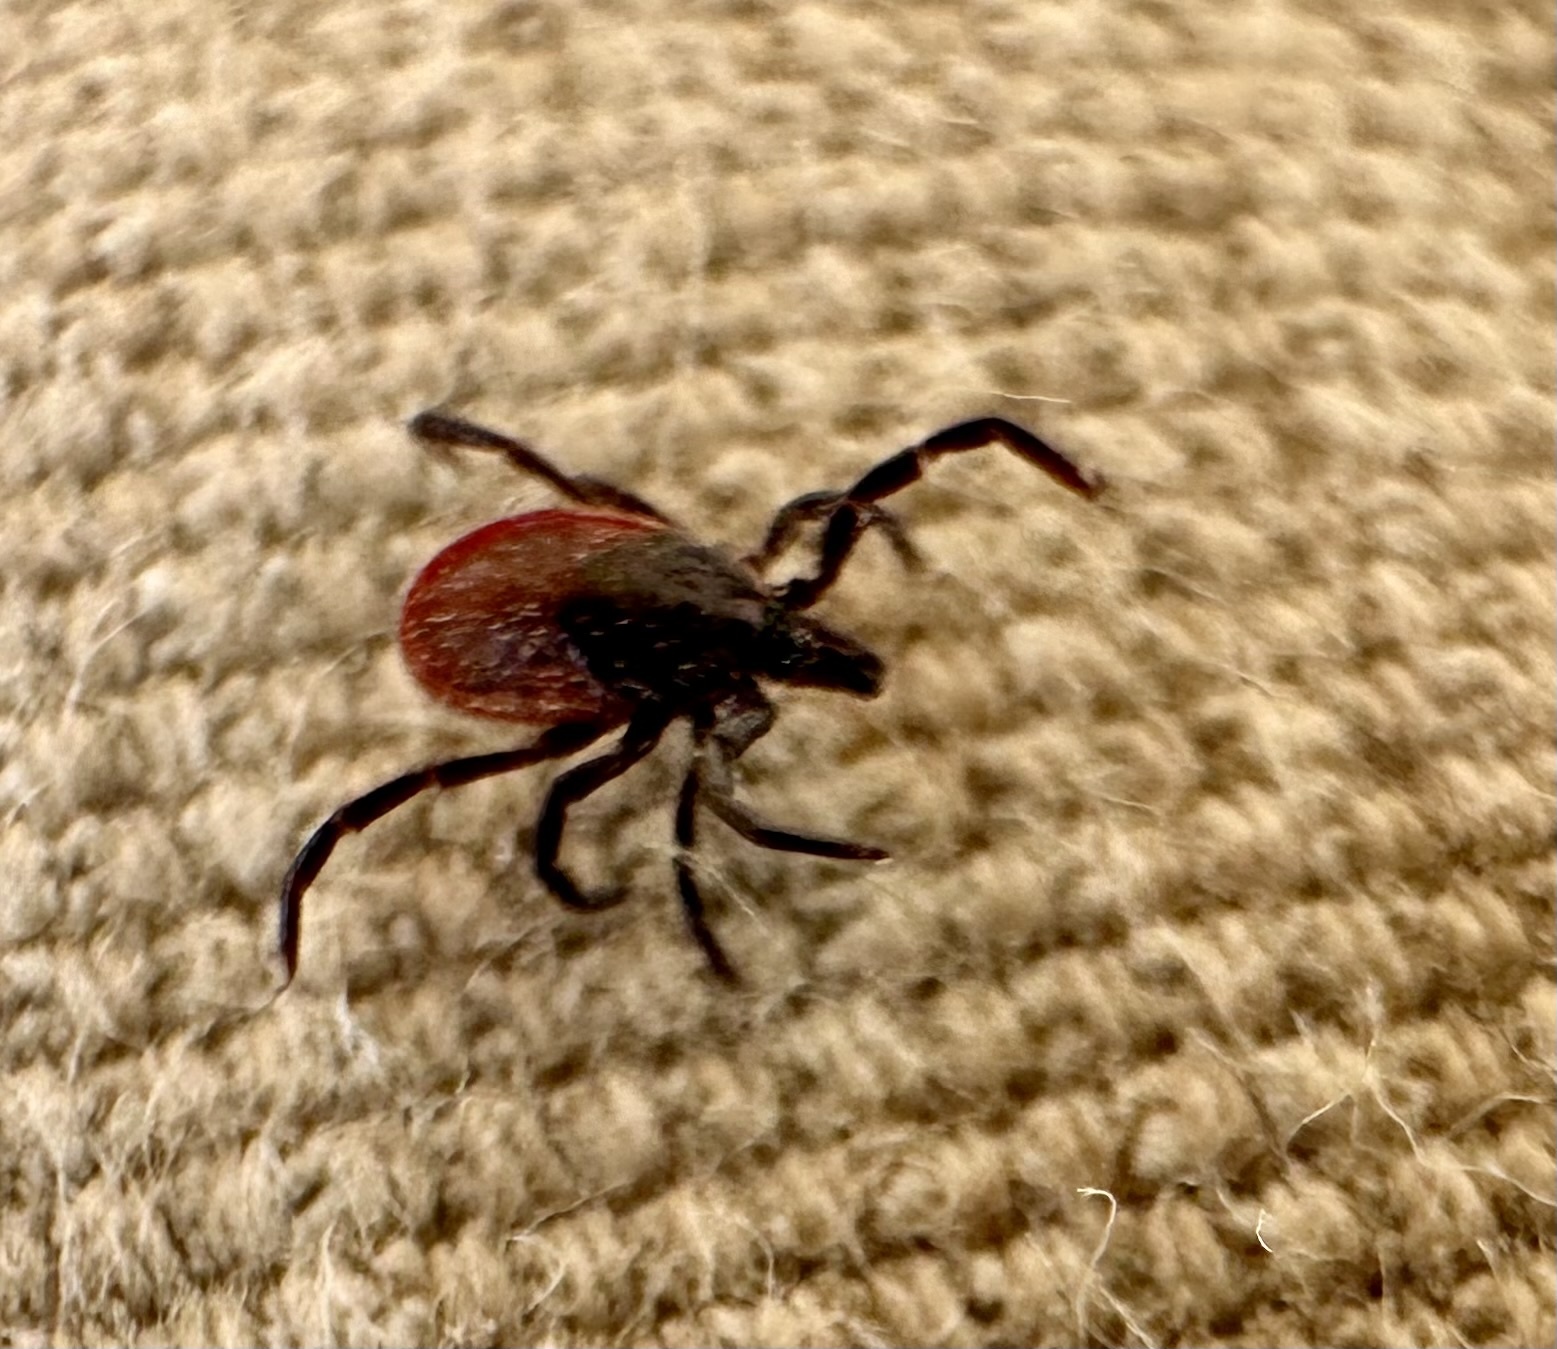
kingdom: Animalia
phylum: Arthropoda
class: Arachnida
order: Ixodida
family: Ixodidae
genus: Ixodes
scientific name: Ixodes pacificus
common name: California black-legged tick
